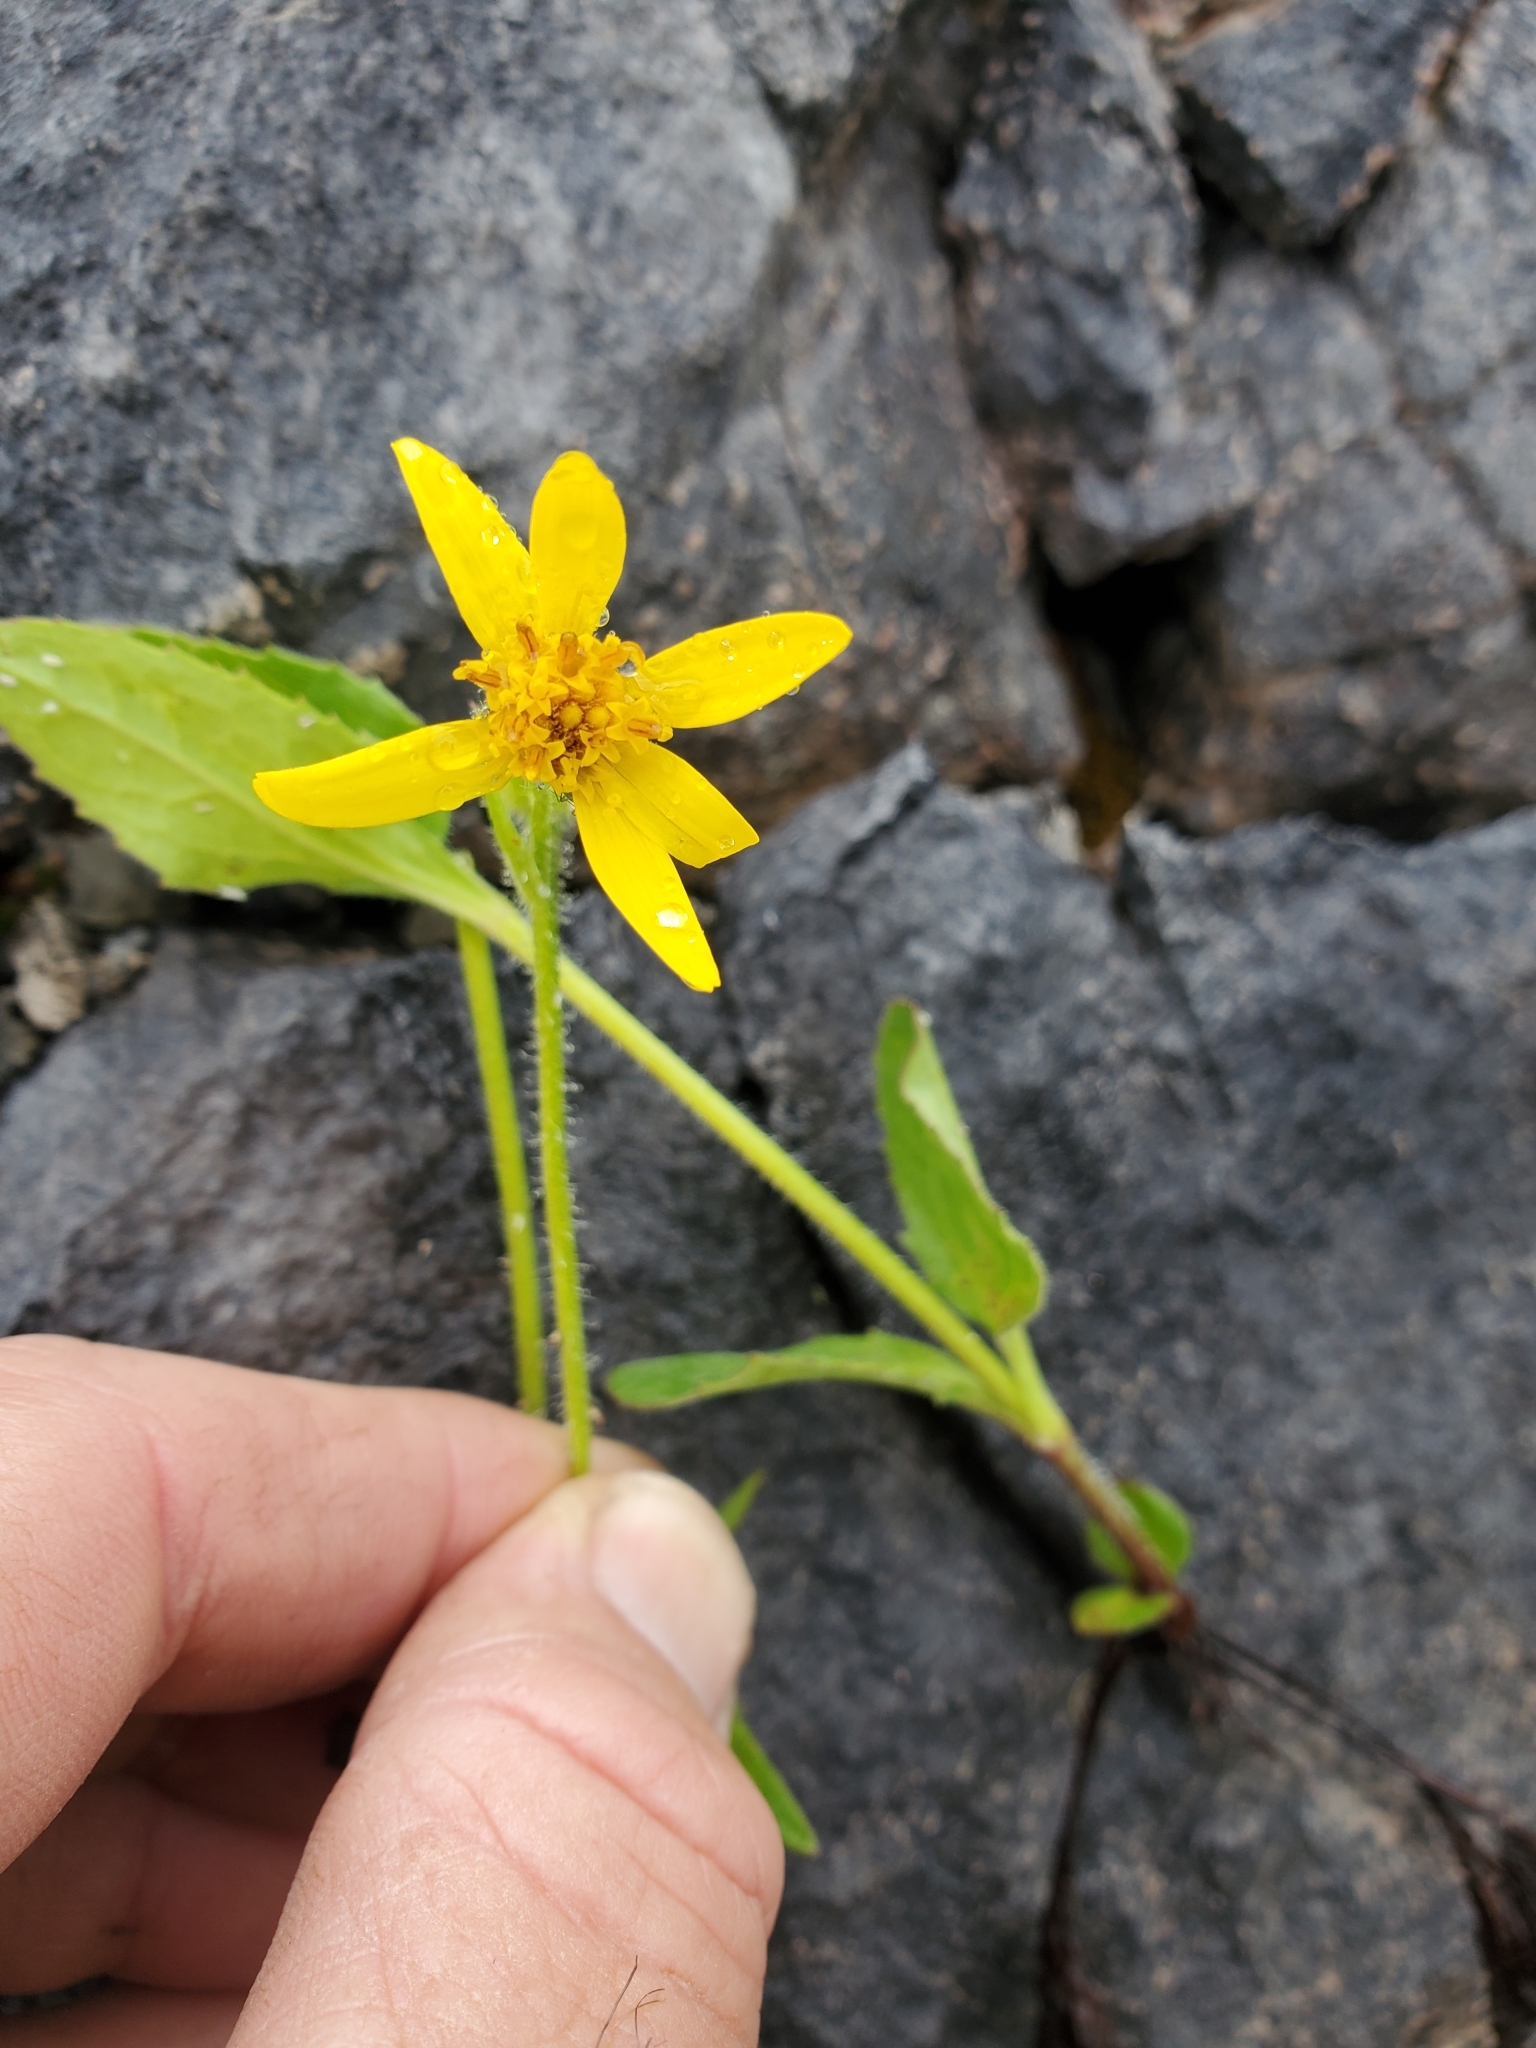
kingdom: Plantae
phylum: Tracheophyta
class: Magnoliopsida
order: Asterales
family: Asteraceae
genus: Arnica
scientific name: Arnica latifolia
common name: Arnica
